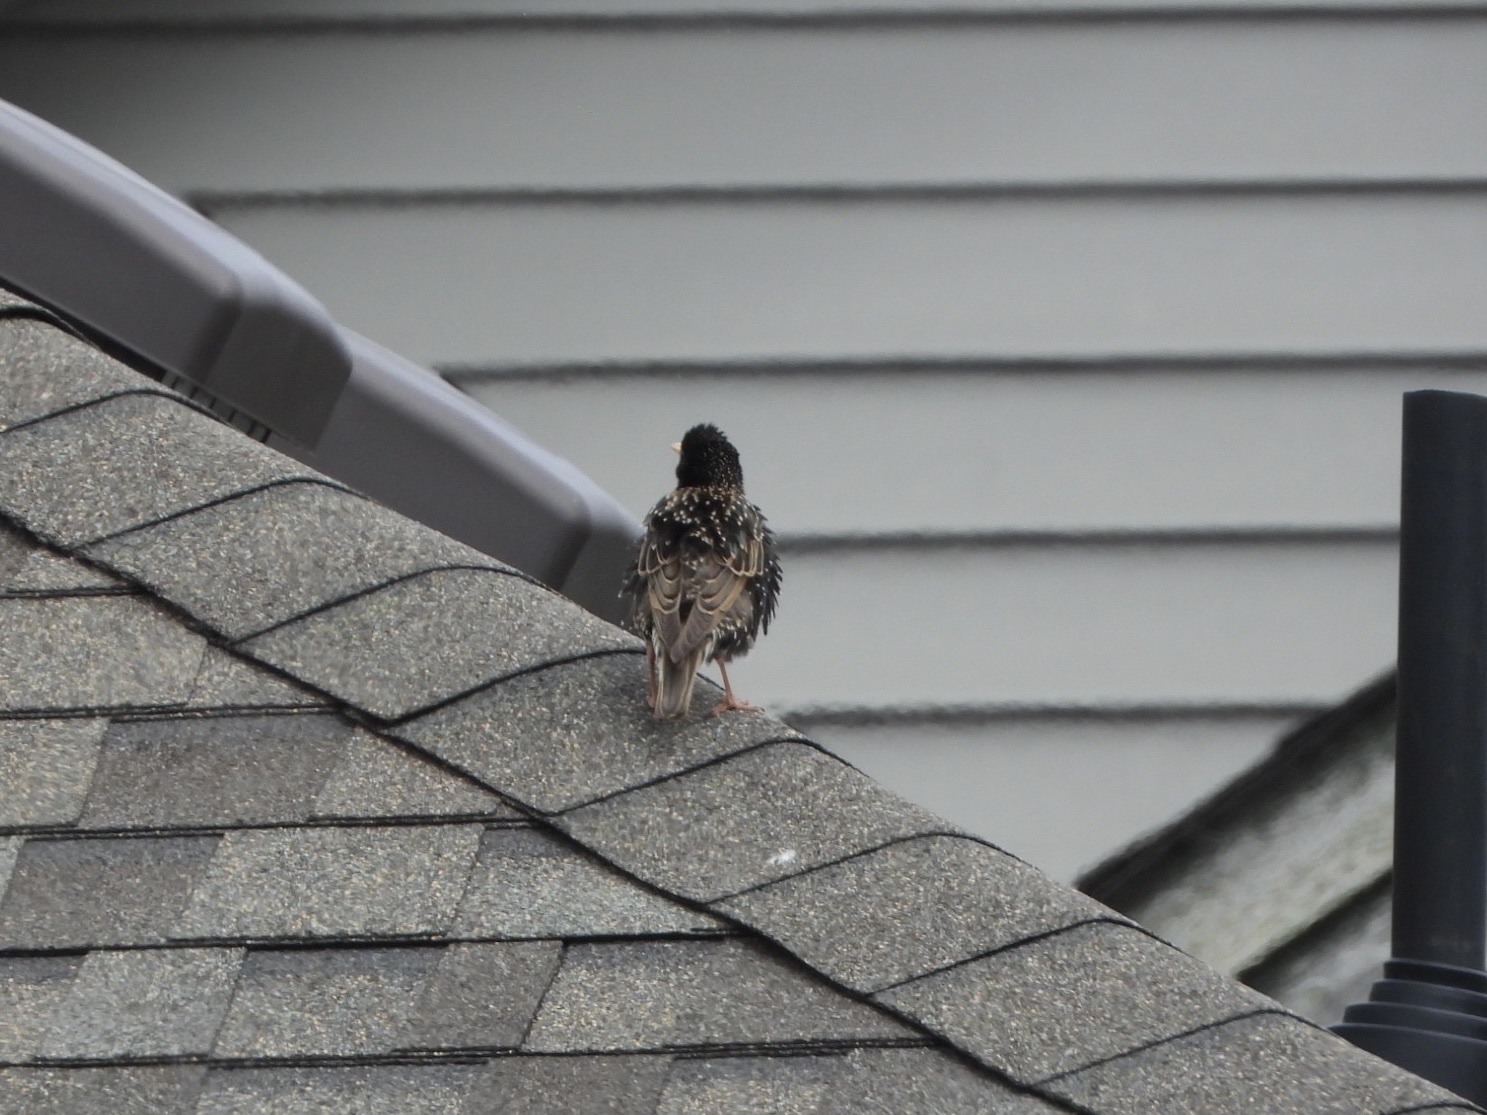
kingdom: Animalia
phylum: Chordata
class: Aves
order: Passeriformes
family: Sturnidae
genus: Sturnus
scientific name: Sturnus vulgaris
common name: Common starling
